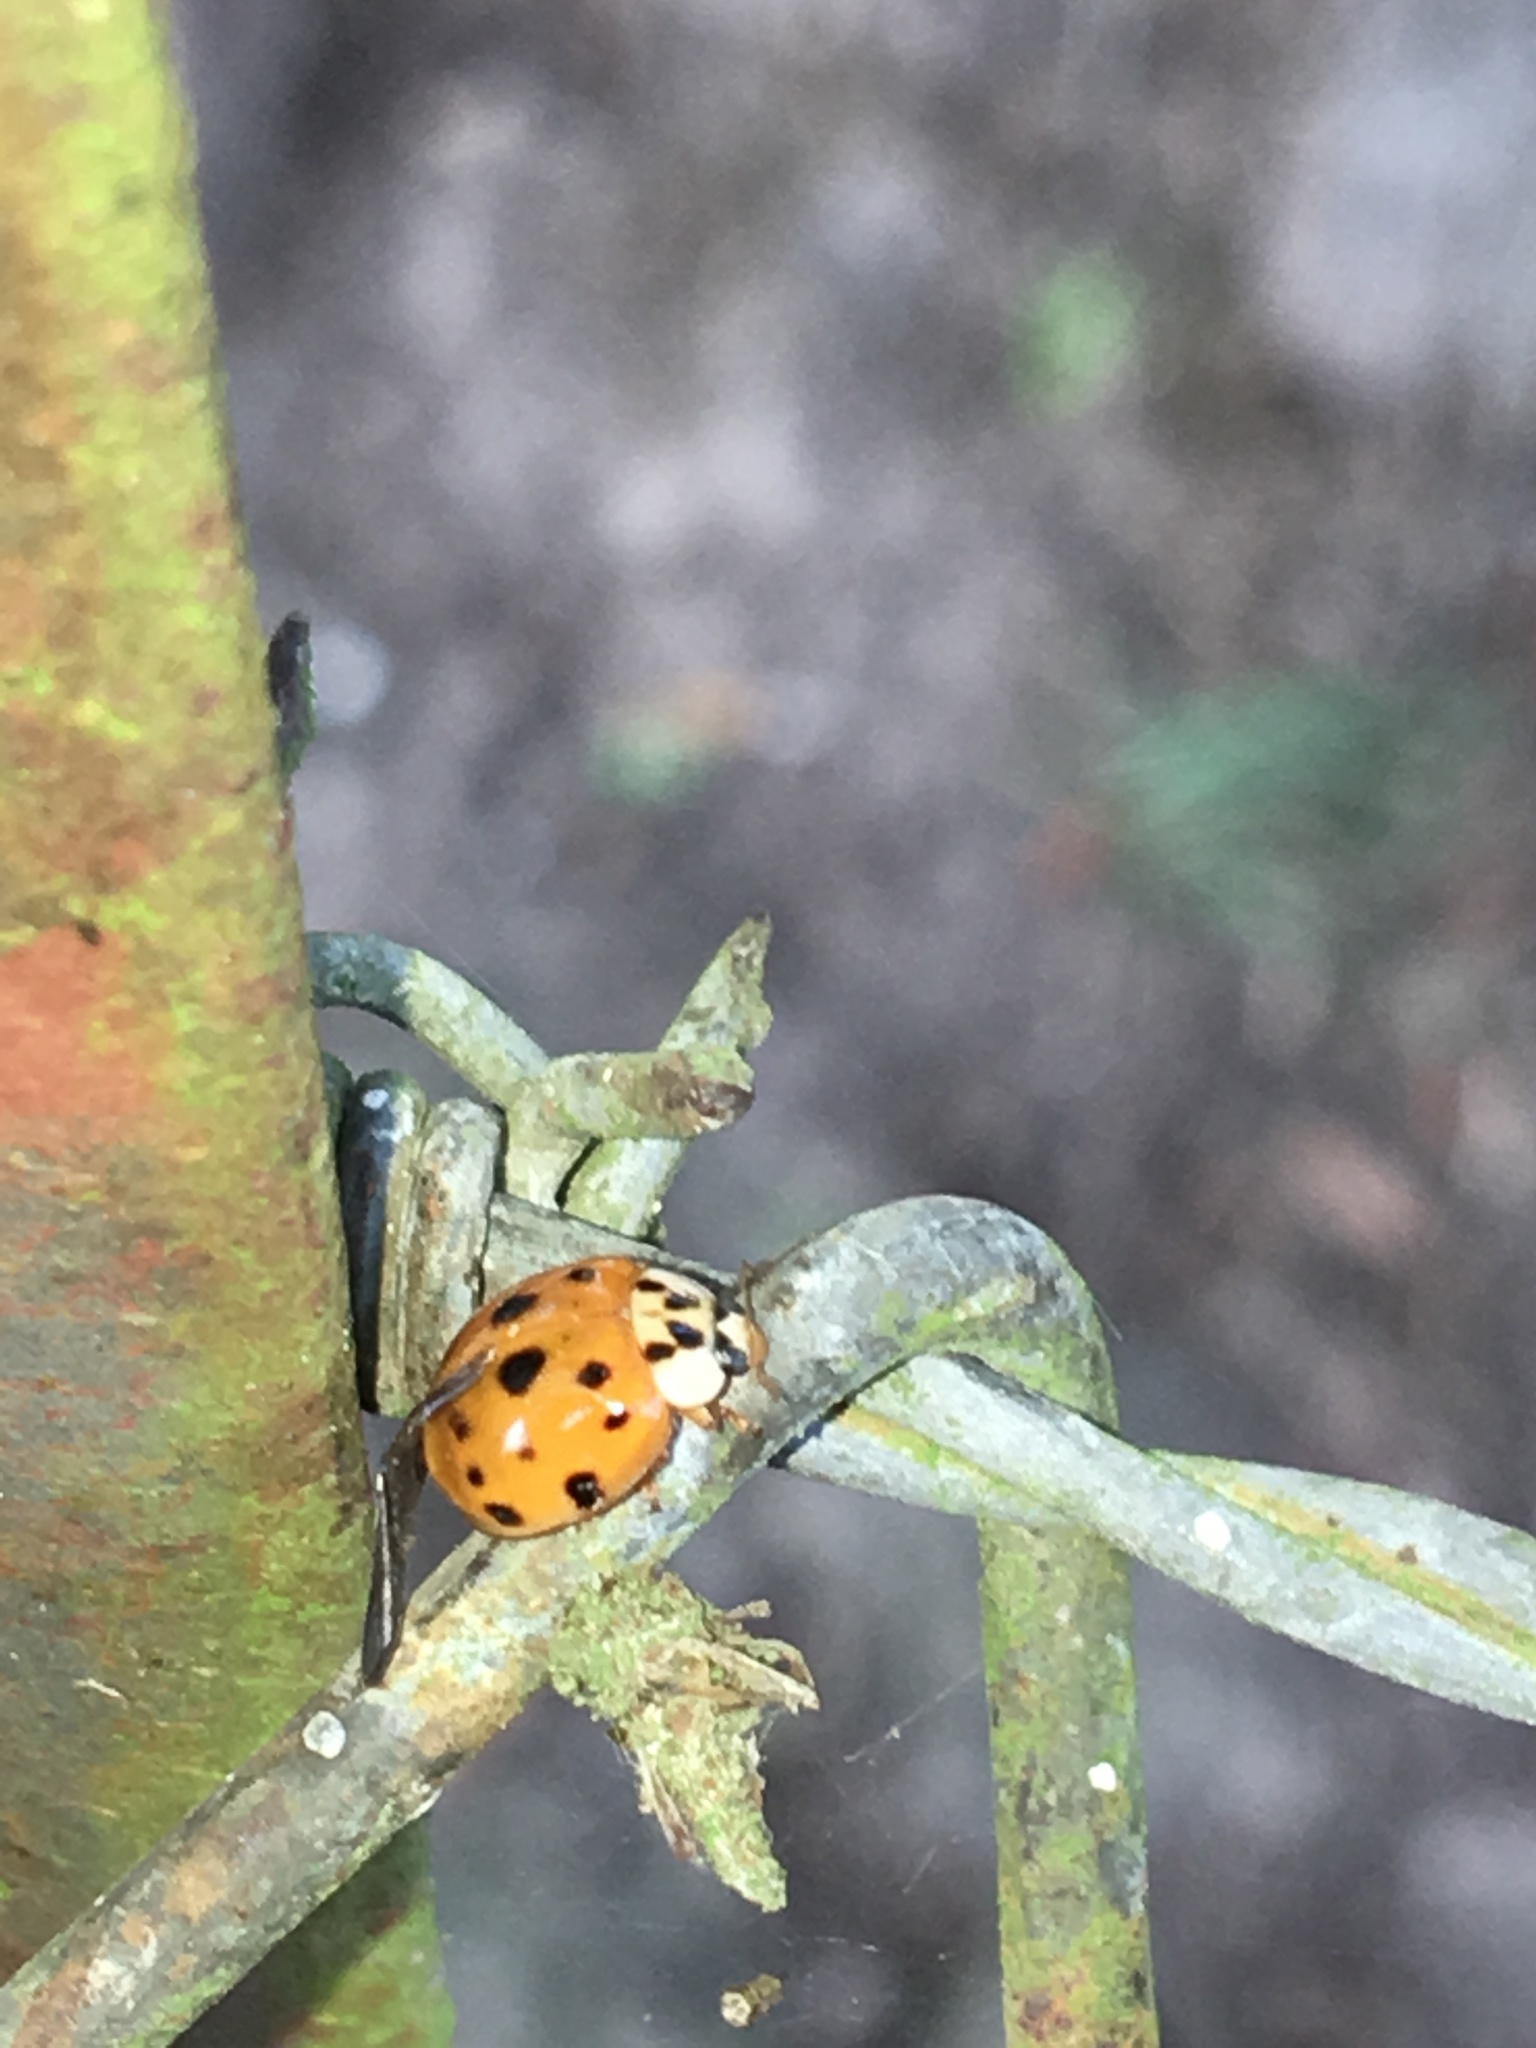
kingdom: Animalia
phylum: Arthropoda
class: Insecta
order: Coleoptera
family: Coccinellidae
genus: Harmonia
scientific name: Harmonia axyridis
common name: Harlequin ladybird
